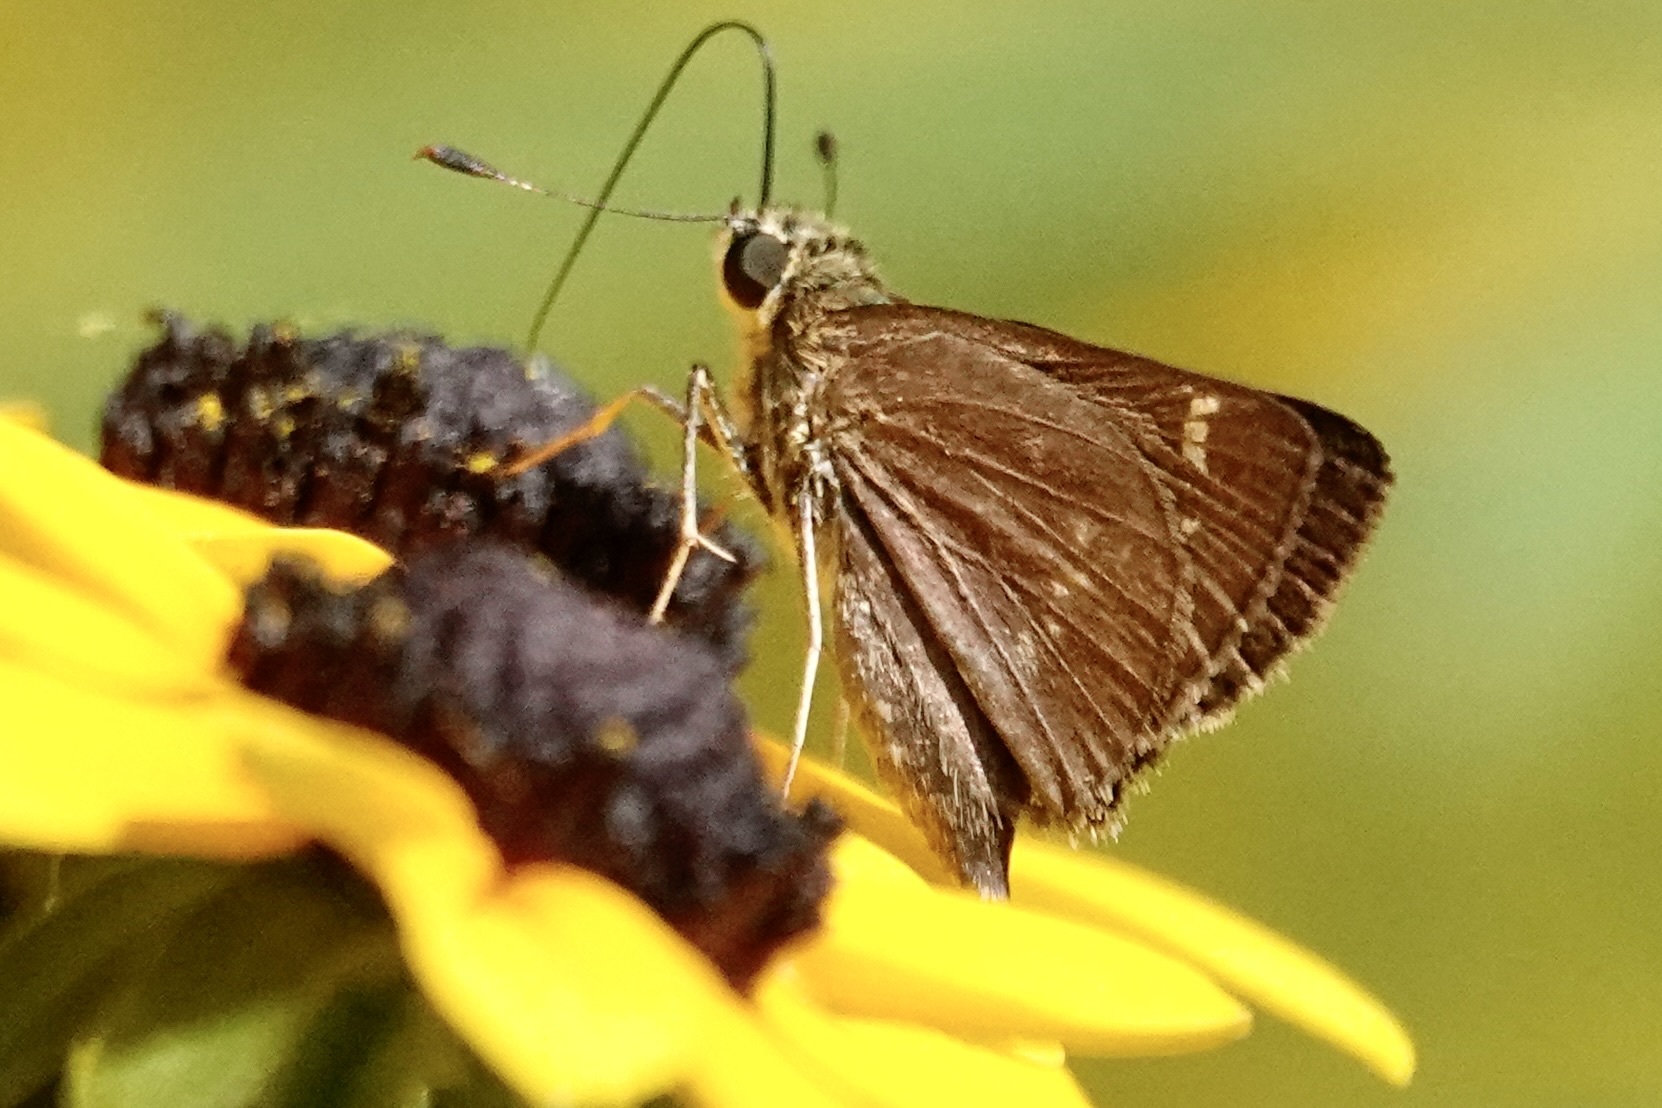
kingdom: Animalia
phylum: Arthropoda
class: Insecta
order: Lepidoptera
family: Hesperiidae
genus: Vernia
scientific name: Vernia verna
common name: Little glassywing
